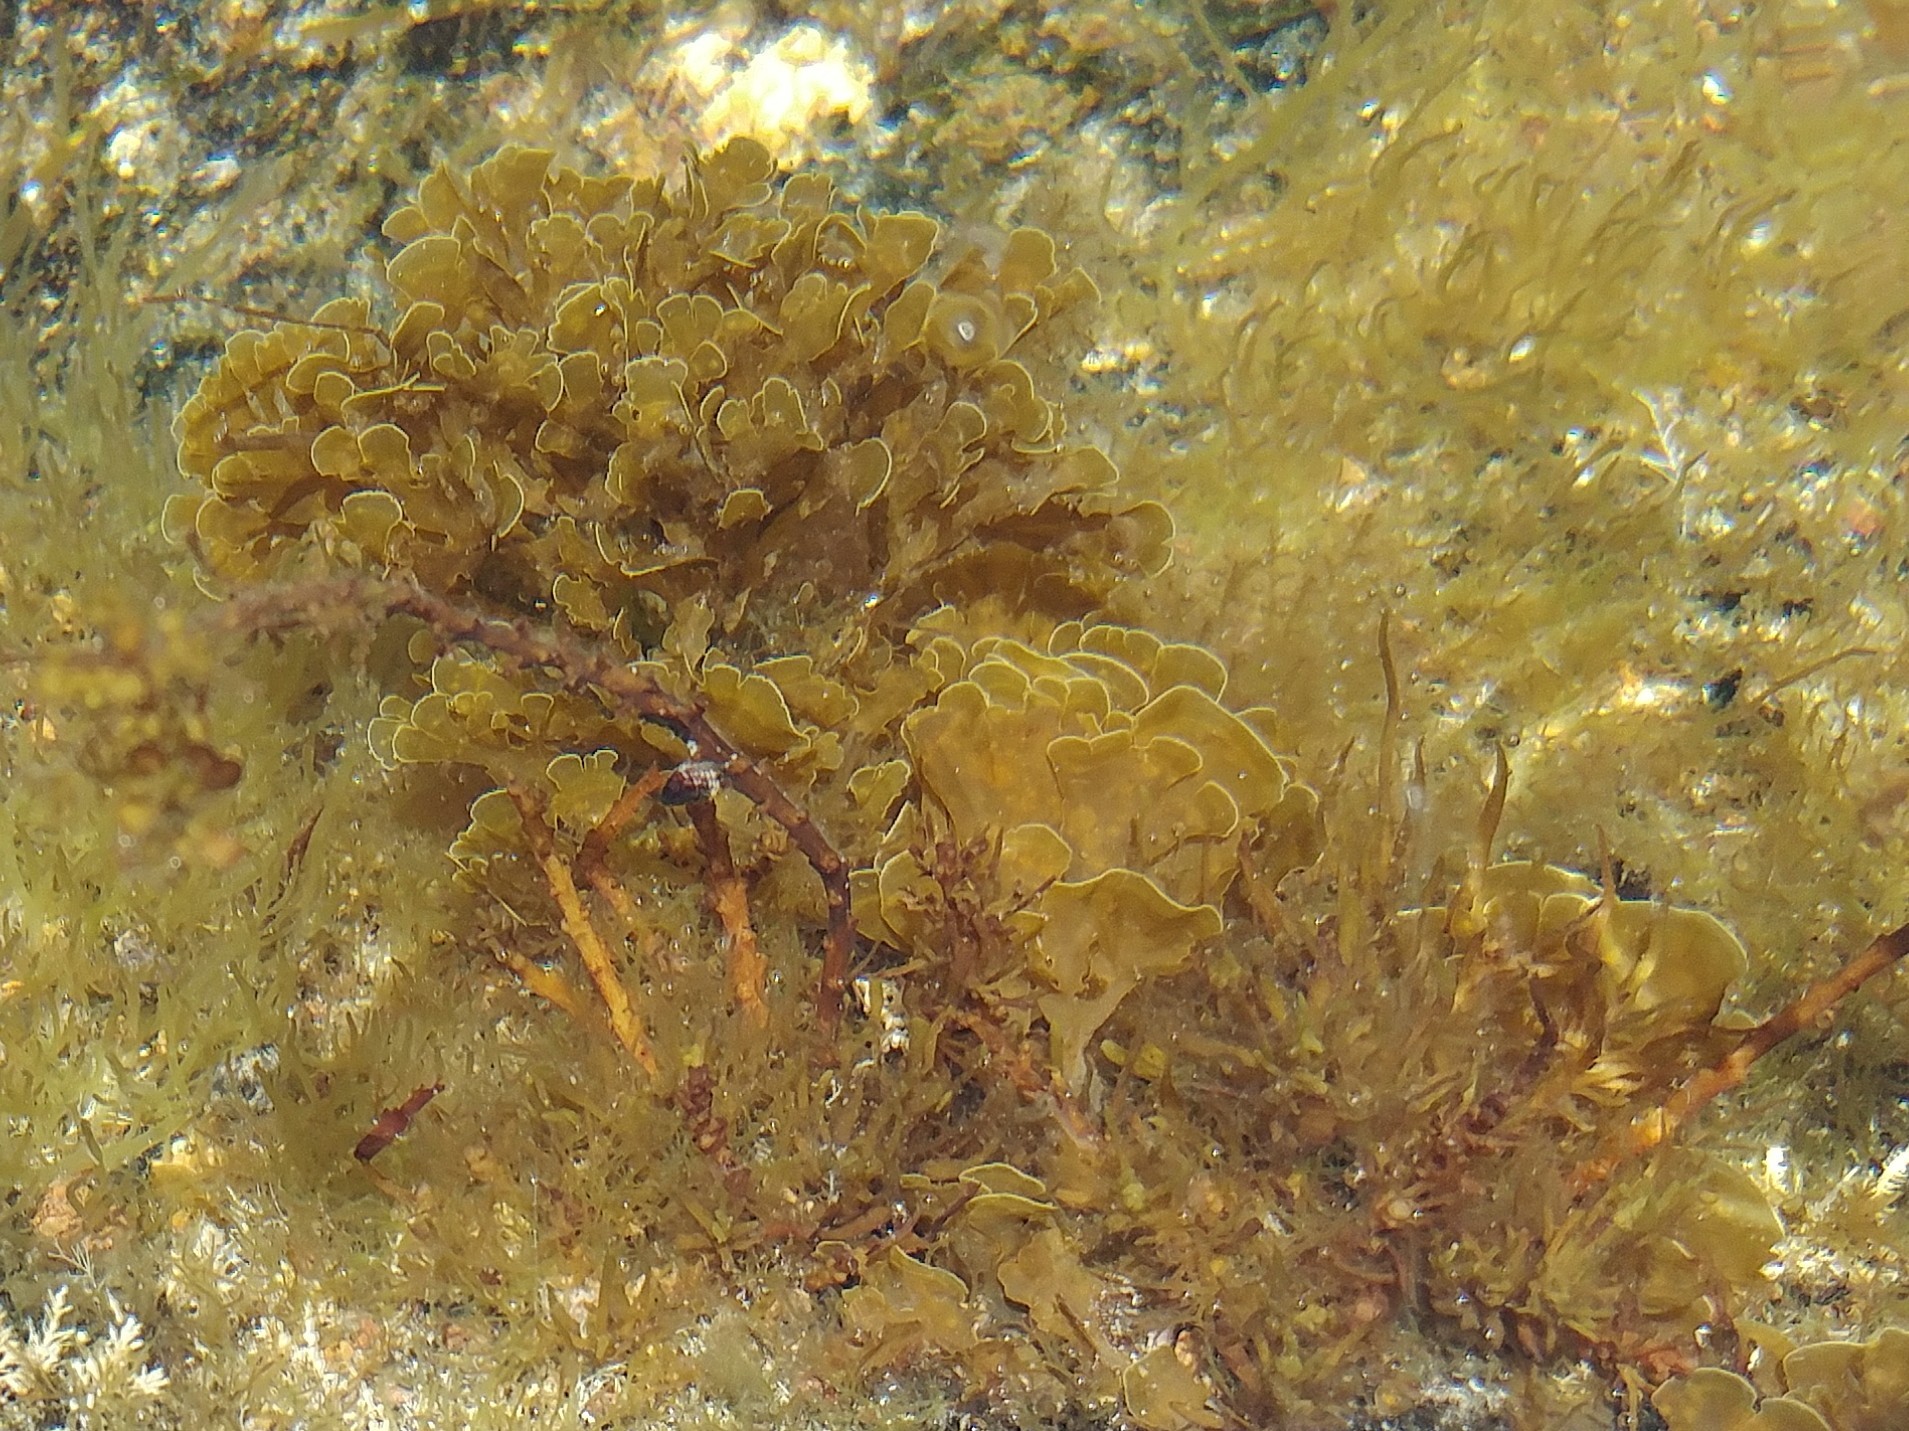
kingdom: Chromista
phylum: Ochrophyta
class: Phaeophyceae
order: Dictyotales
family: Dictyotaceae
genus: Zonaria
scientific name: Zonaria farlowii
